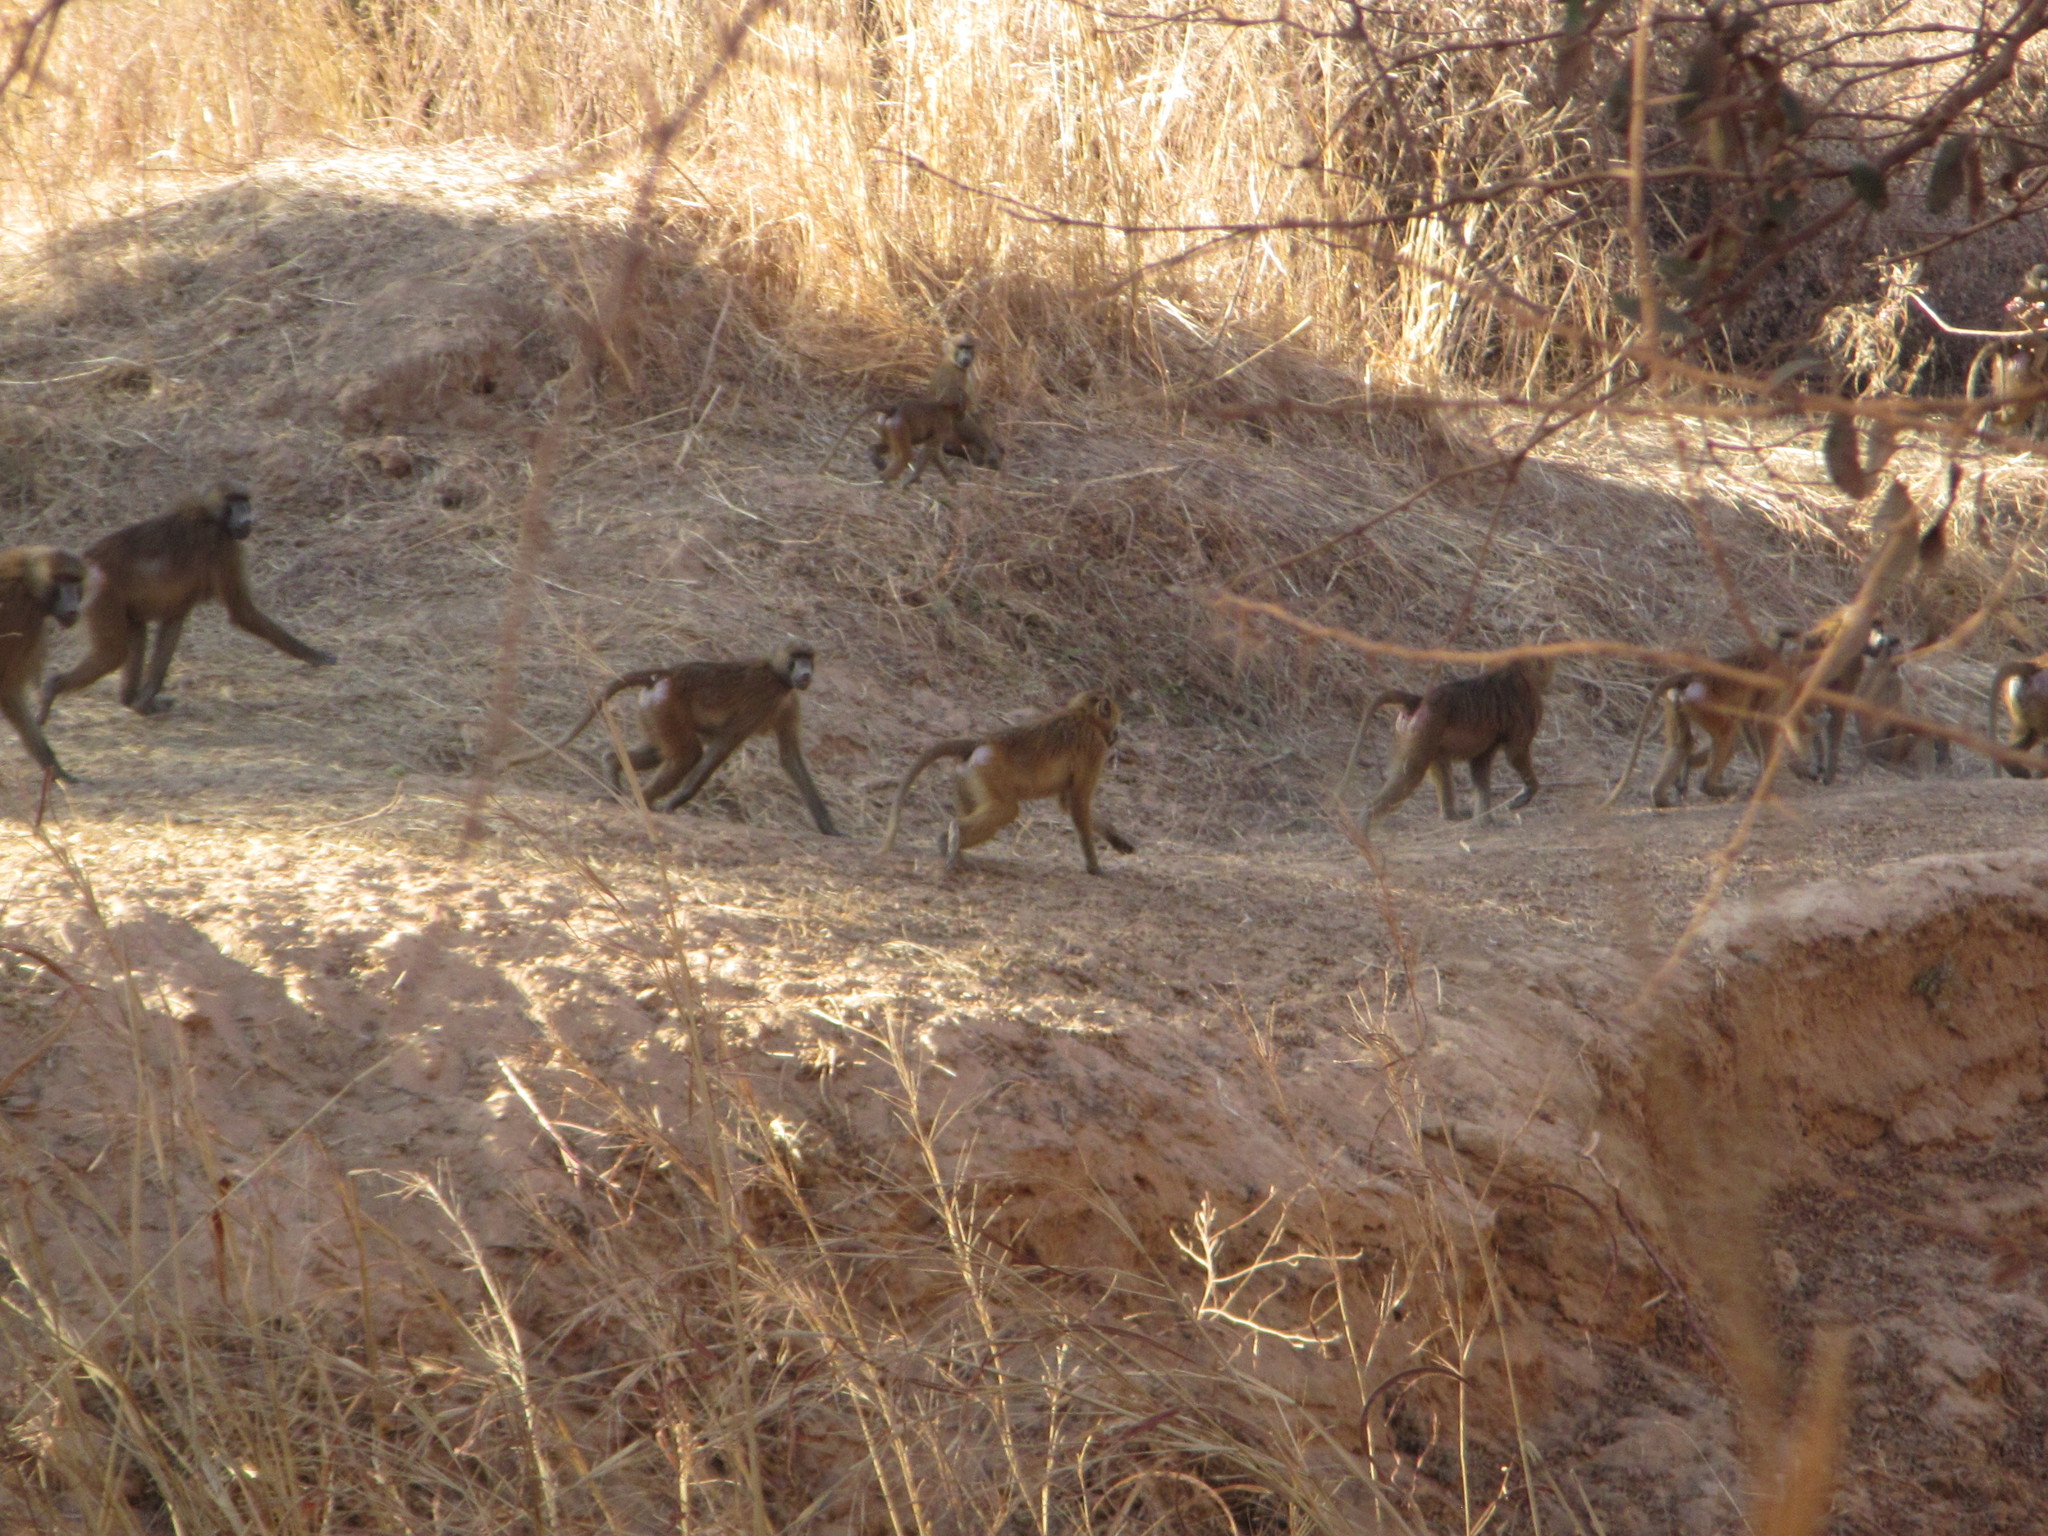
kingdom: Animalia
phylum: Chordata
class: Mammalia
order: Primates
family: Cercopithecidae
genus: Papio
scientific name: Papio papio
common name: Guinea baboon
